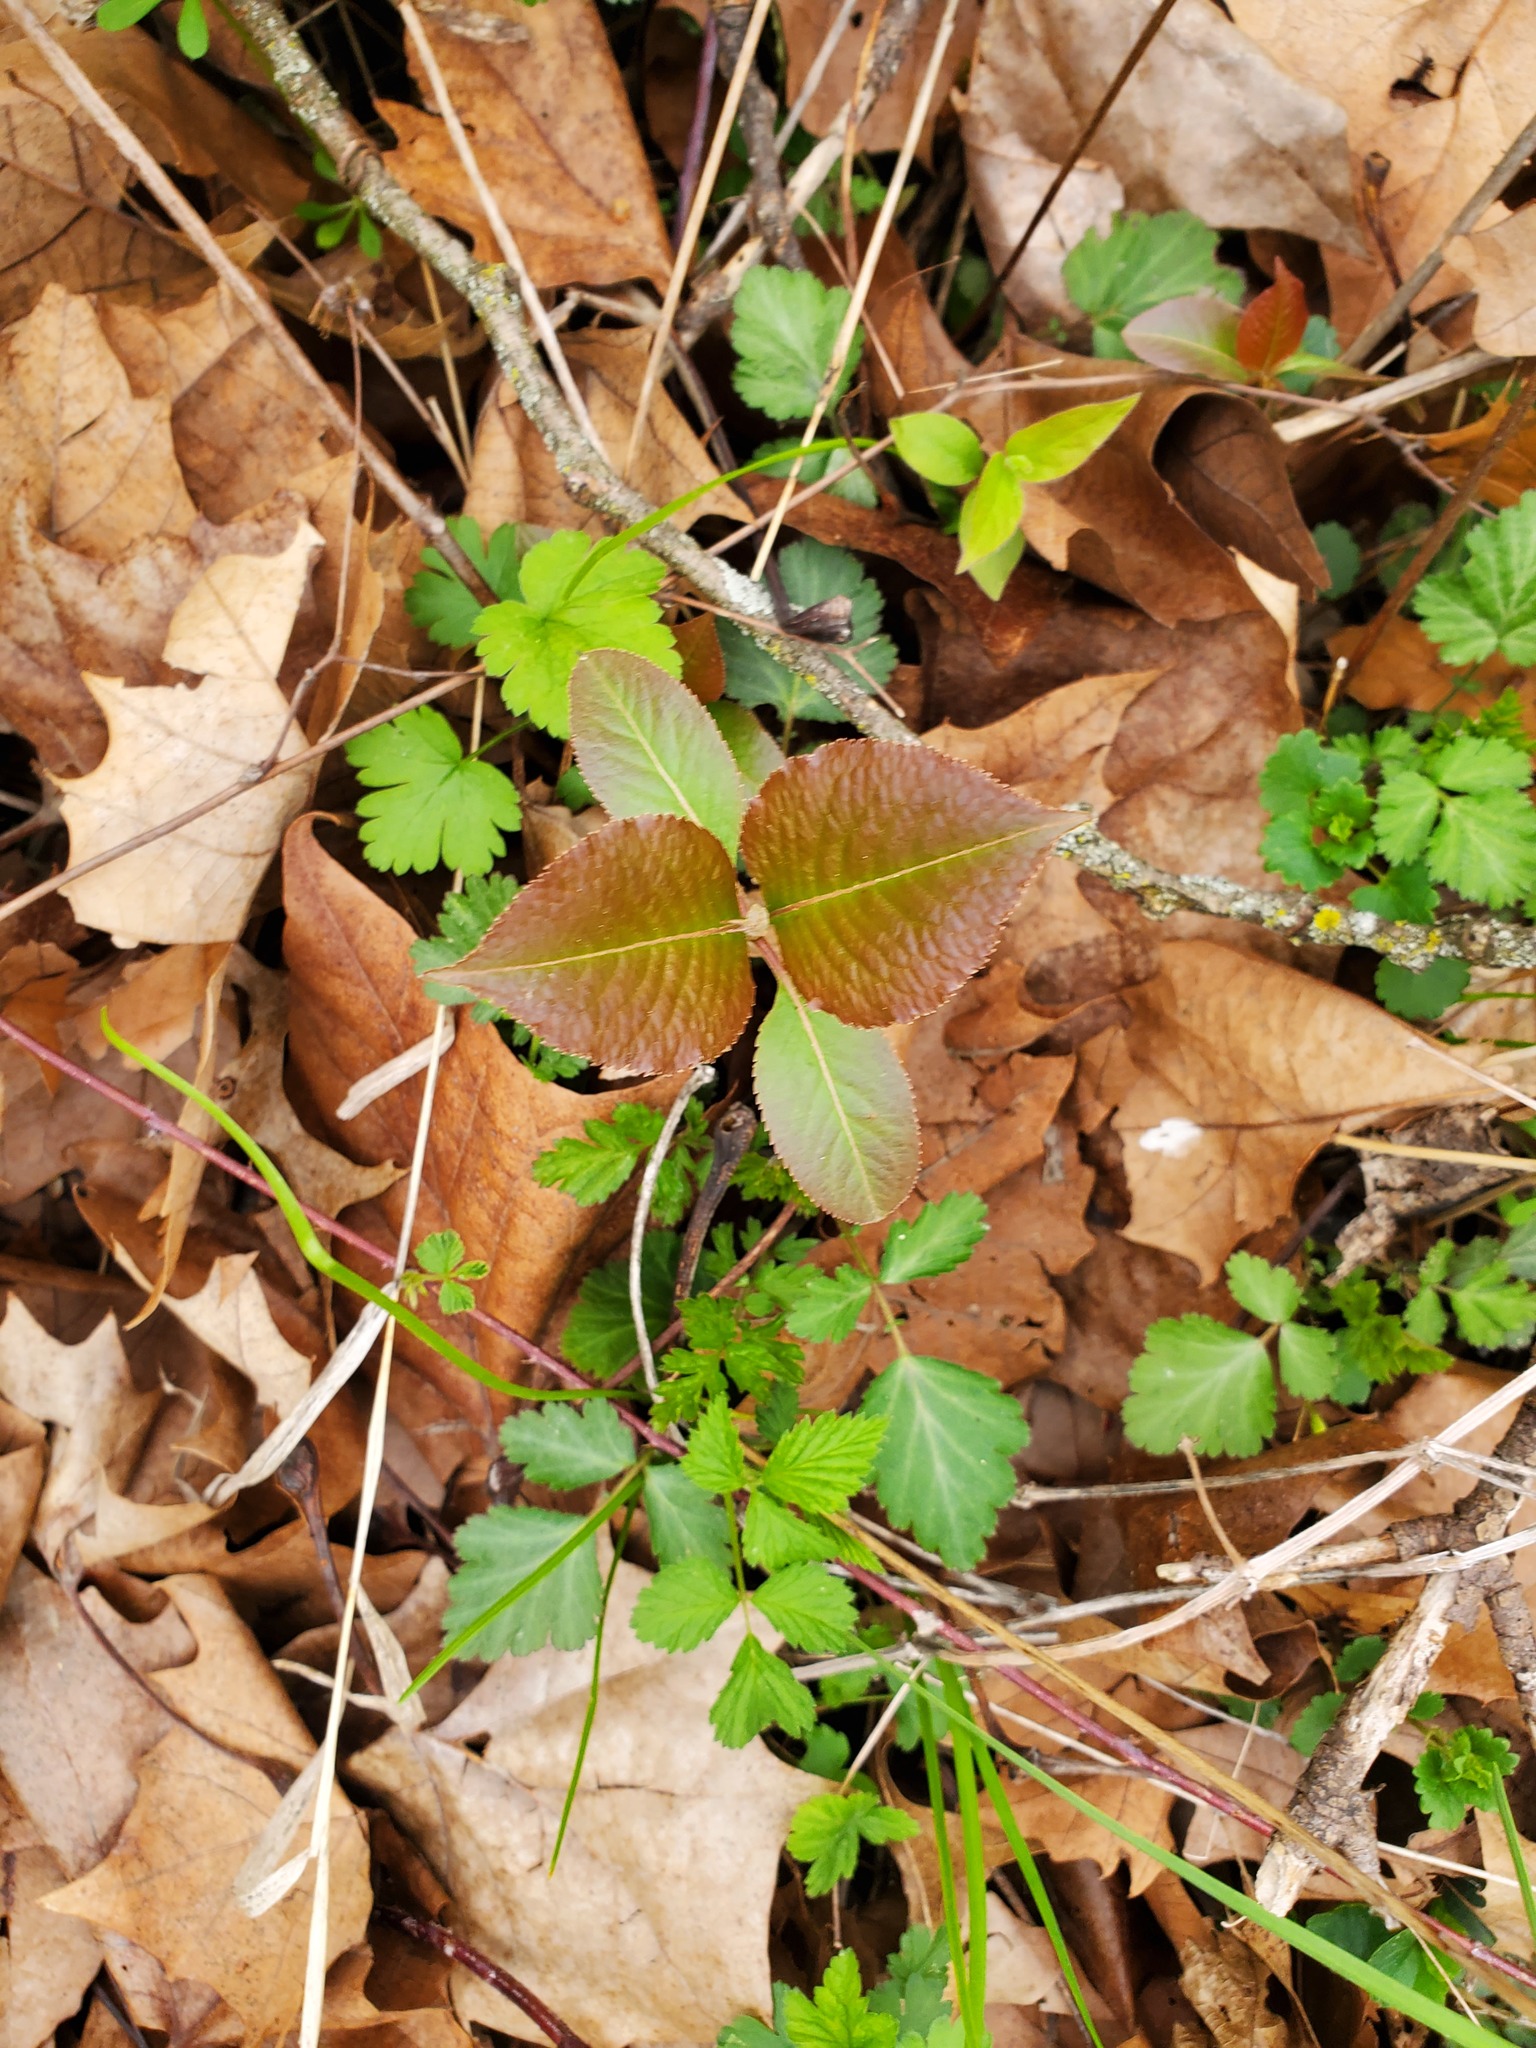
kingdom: Plantae
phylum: Tracheophyta
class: Magnoliopsida
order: Dipsacales
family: Viburnaceae
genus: Viburnum
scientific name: Viburnum lentago
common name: Black haw
